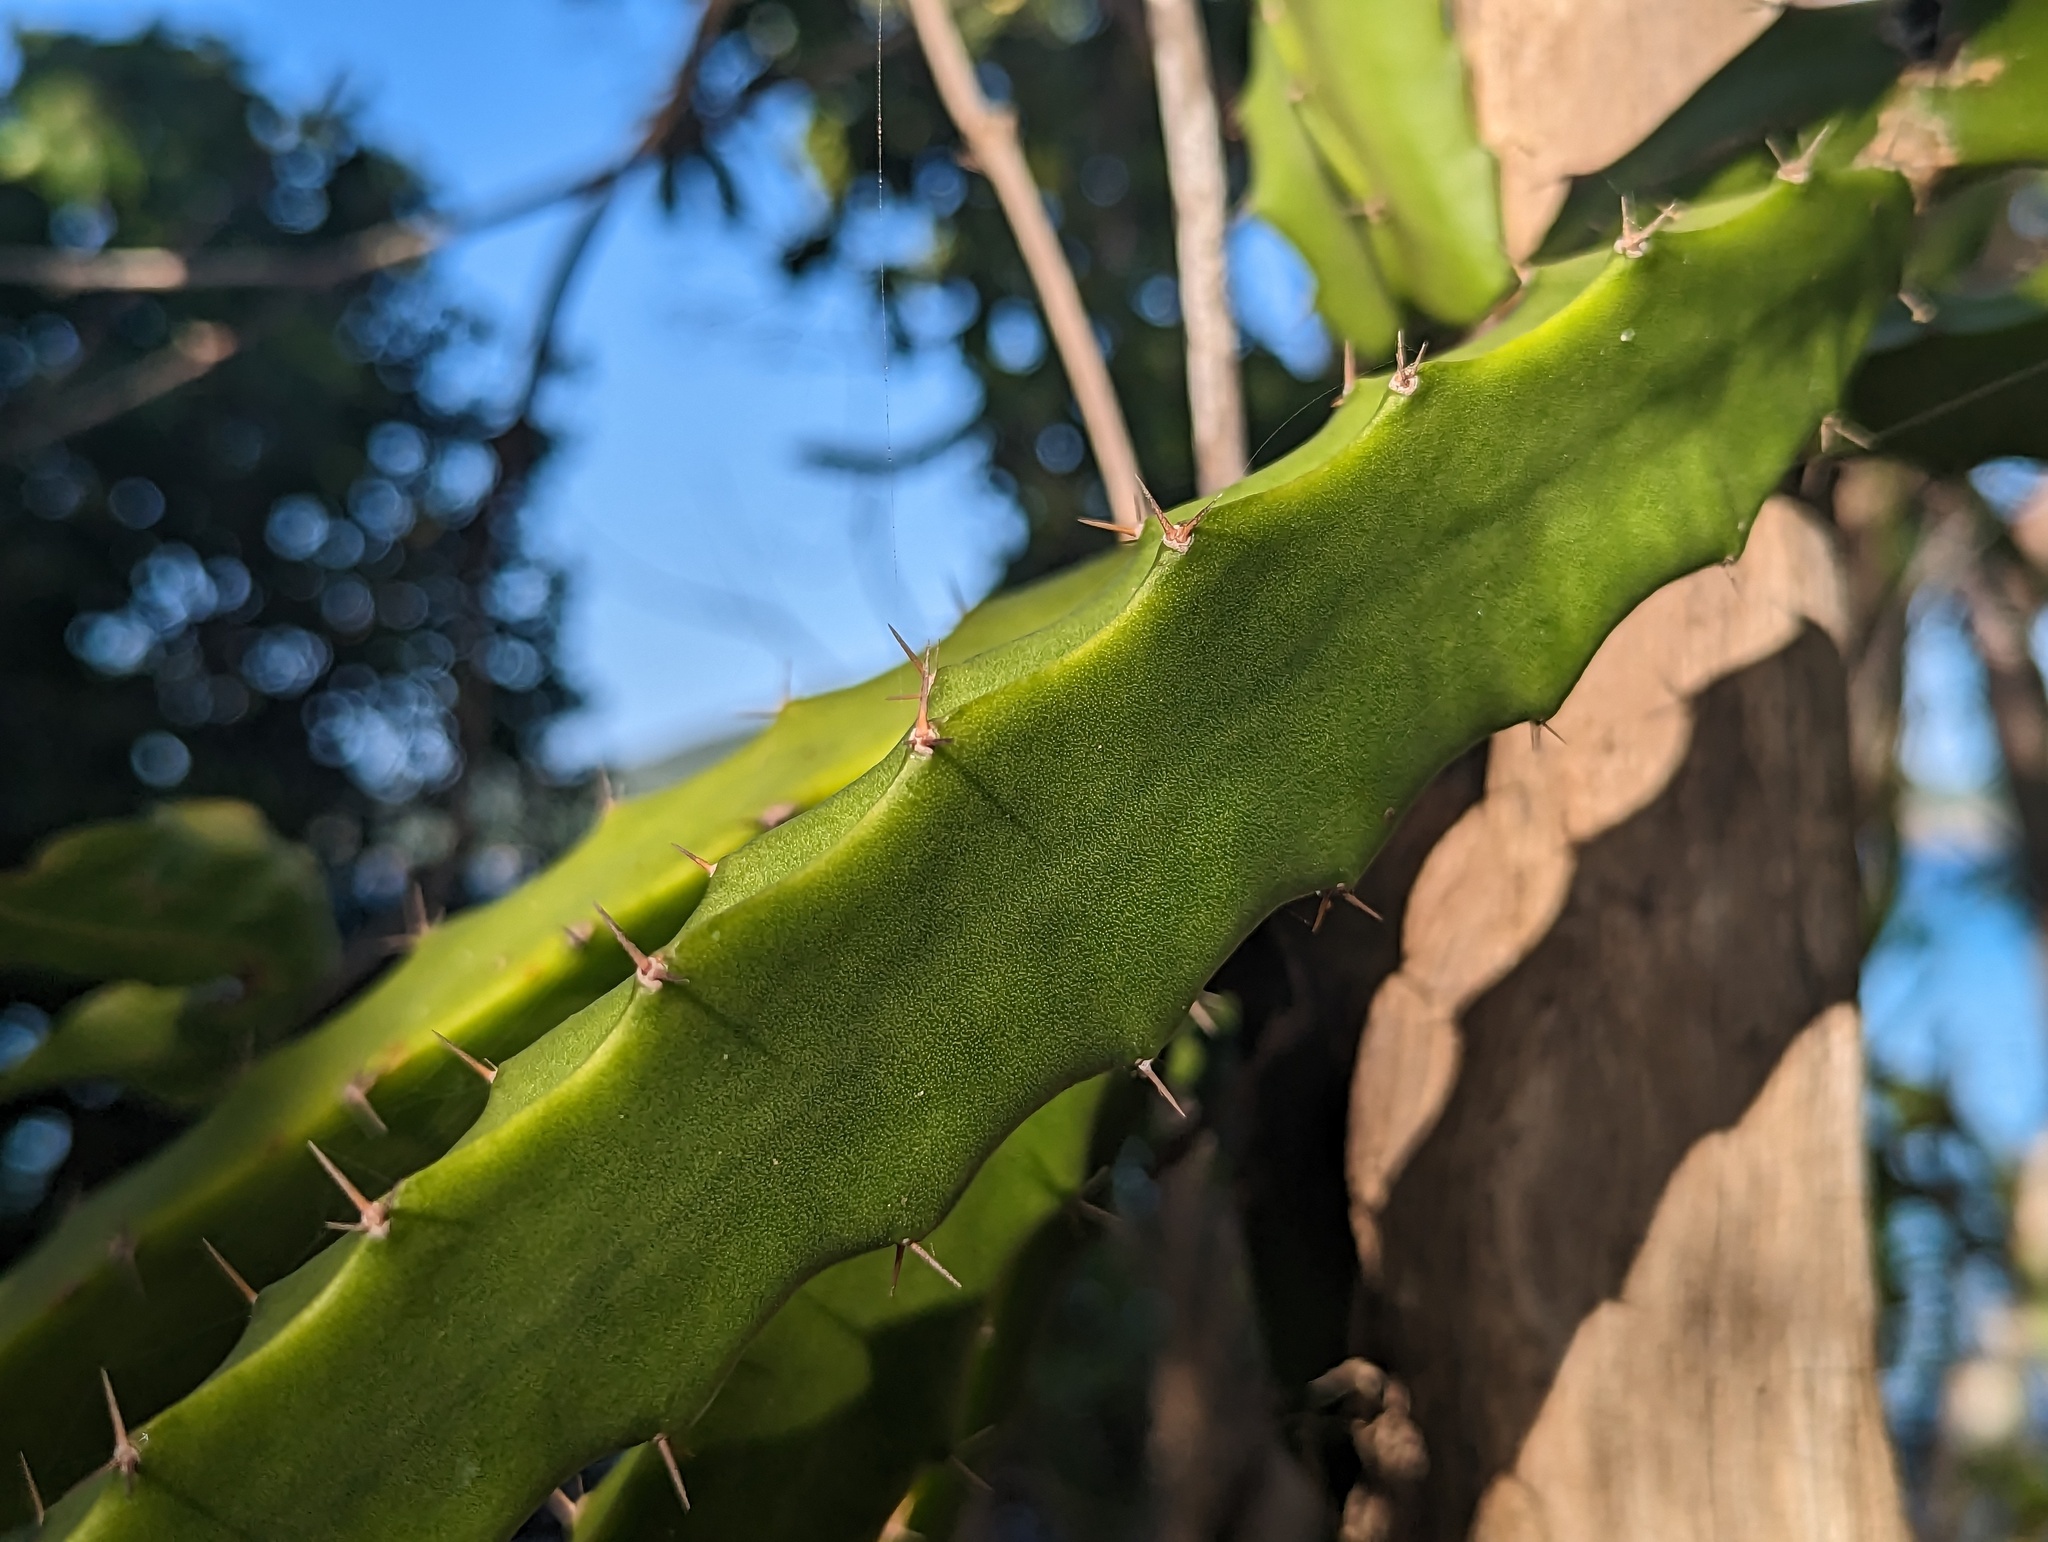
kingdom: Plantae
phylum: Tracheophyta
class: Magnoliopsida
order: Caryophyllales
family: Cactaceae
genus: Selenicereus
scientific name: Selenicereus triangularis
